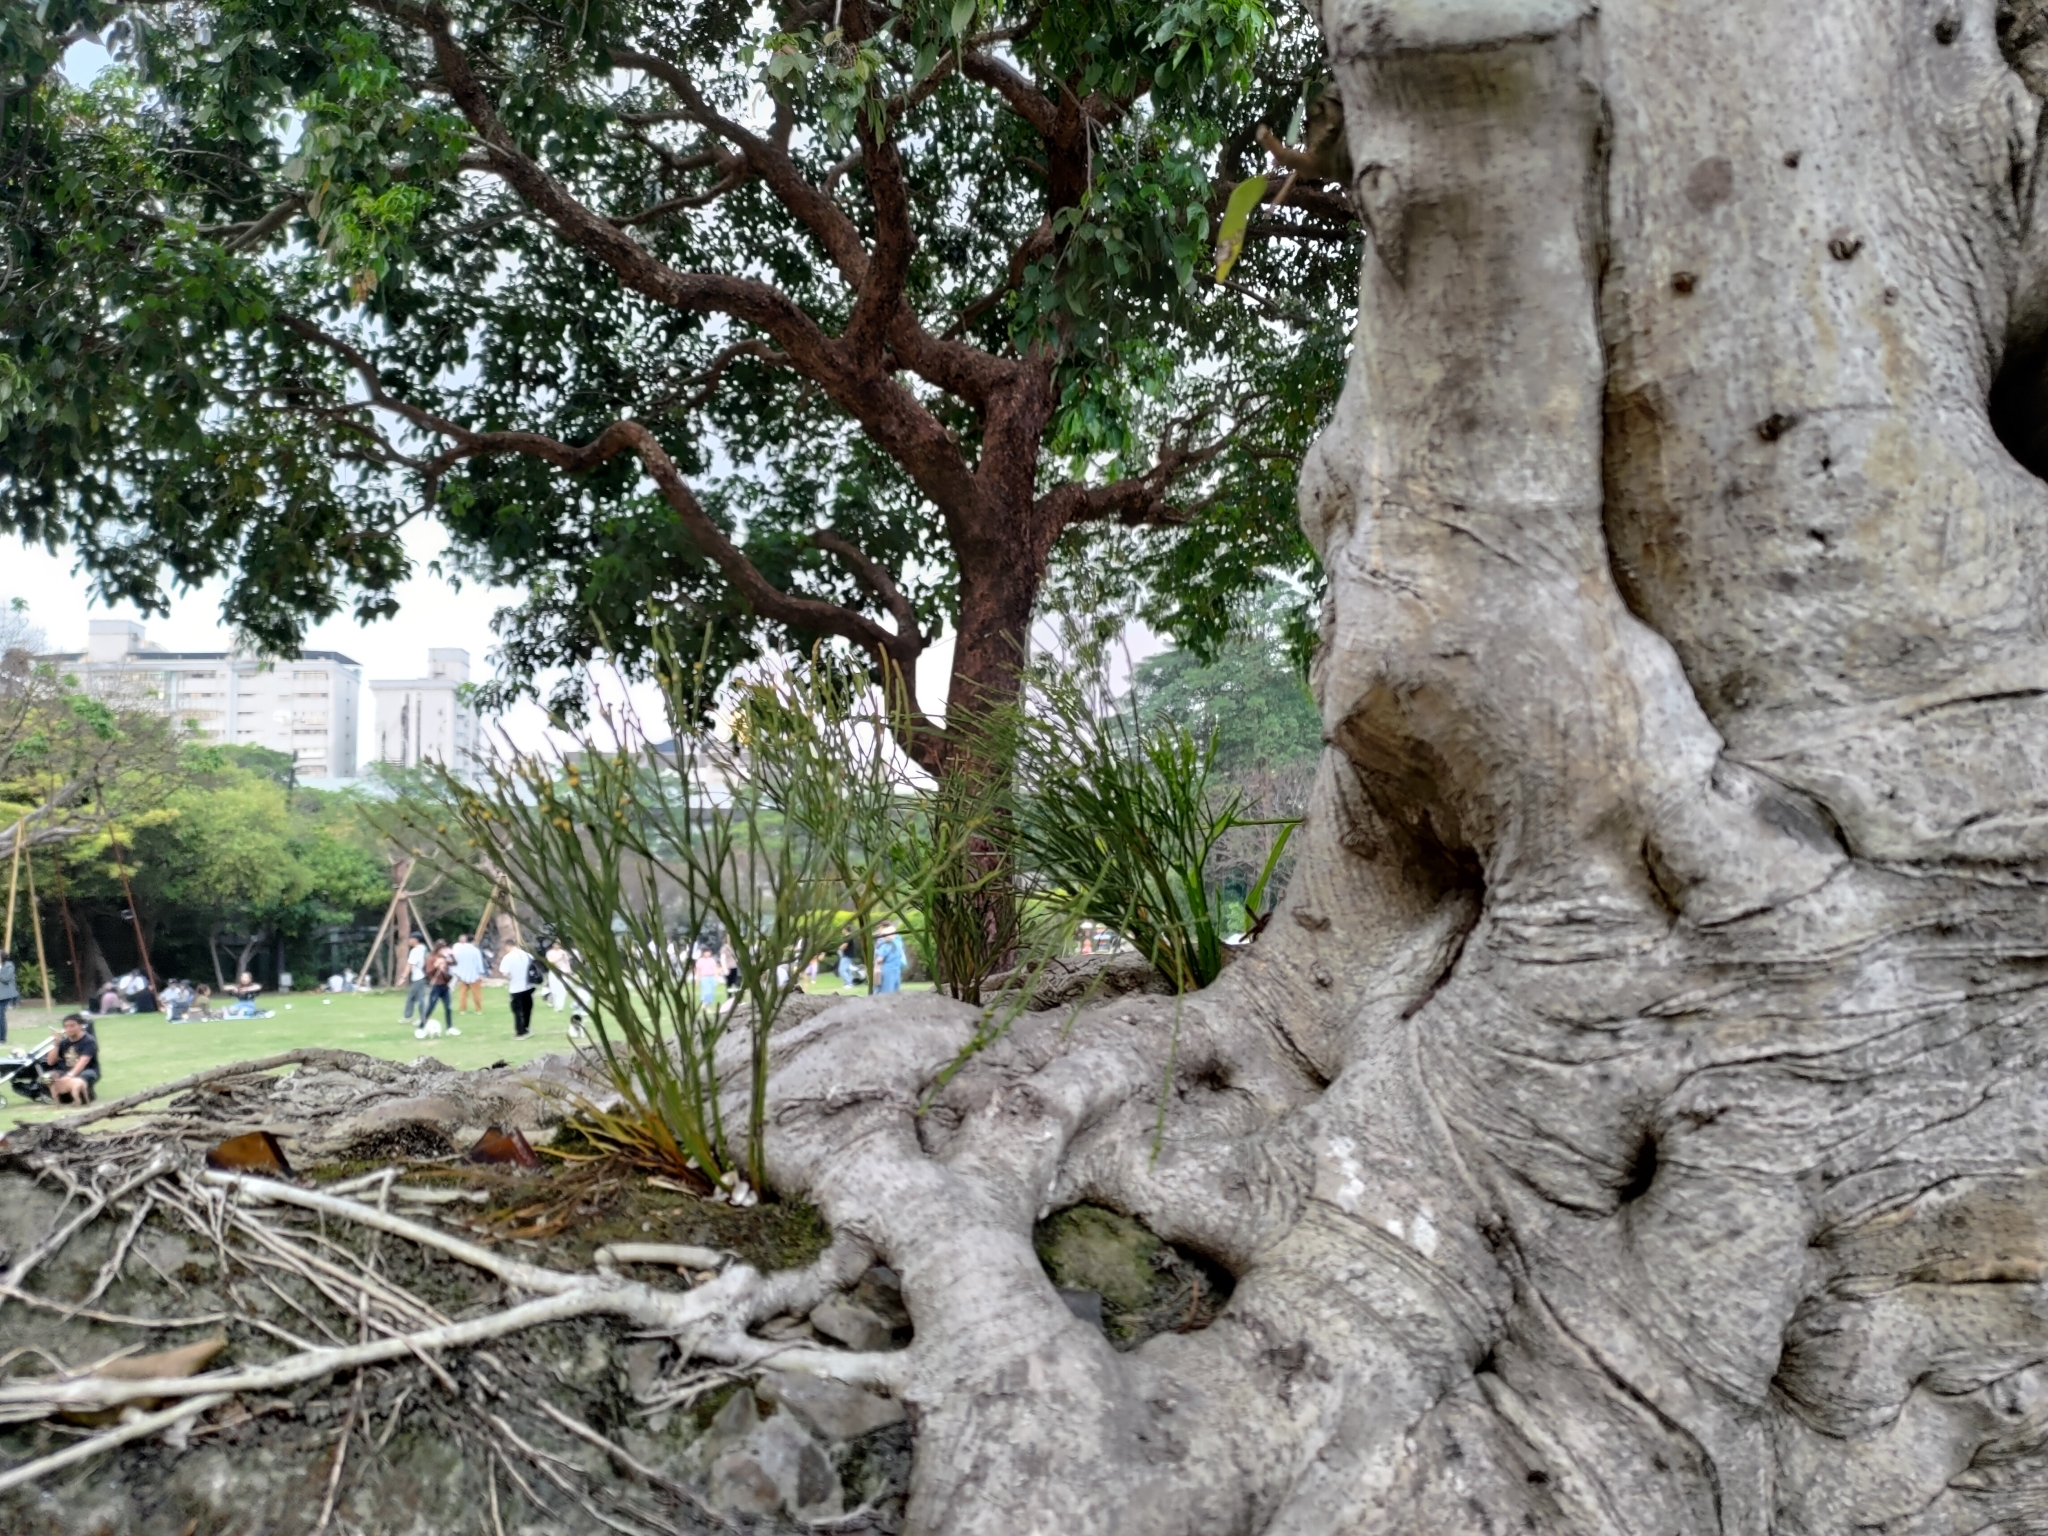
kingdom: Plantae
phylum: Tracheophyta
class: Polypodiopsida
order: Psilotales
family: Psilotaceae
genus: Psilotum
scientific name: Psilotum nudum
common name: Skeleton fork fern
